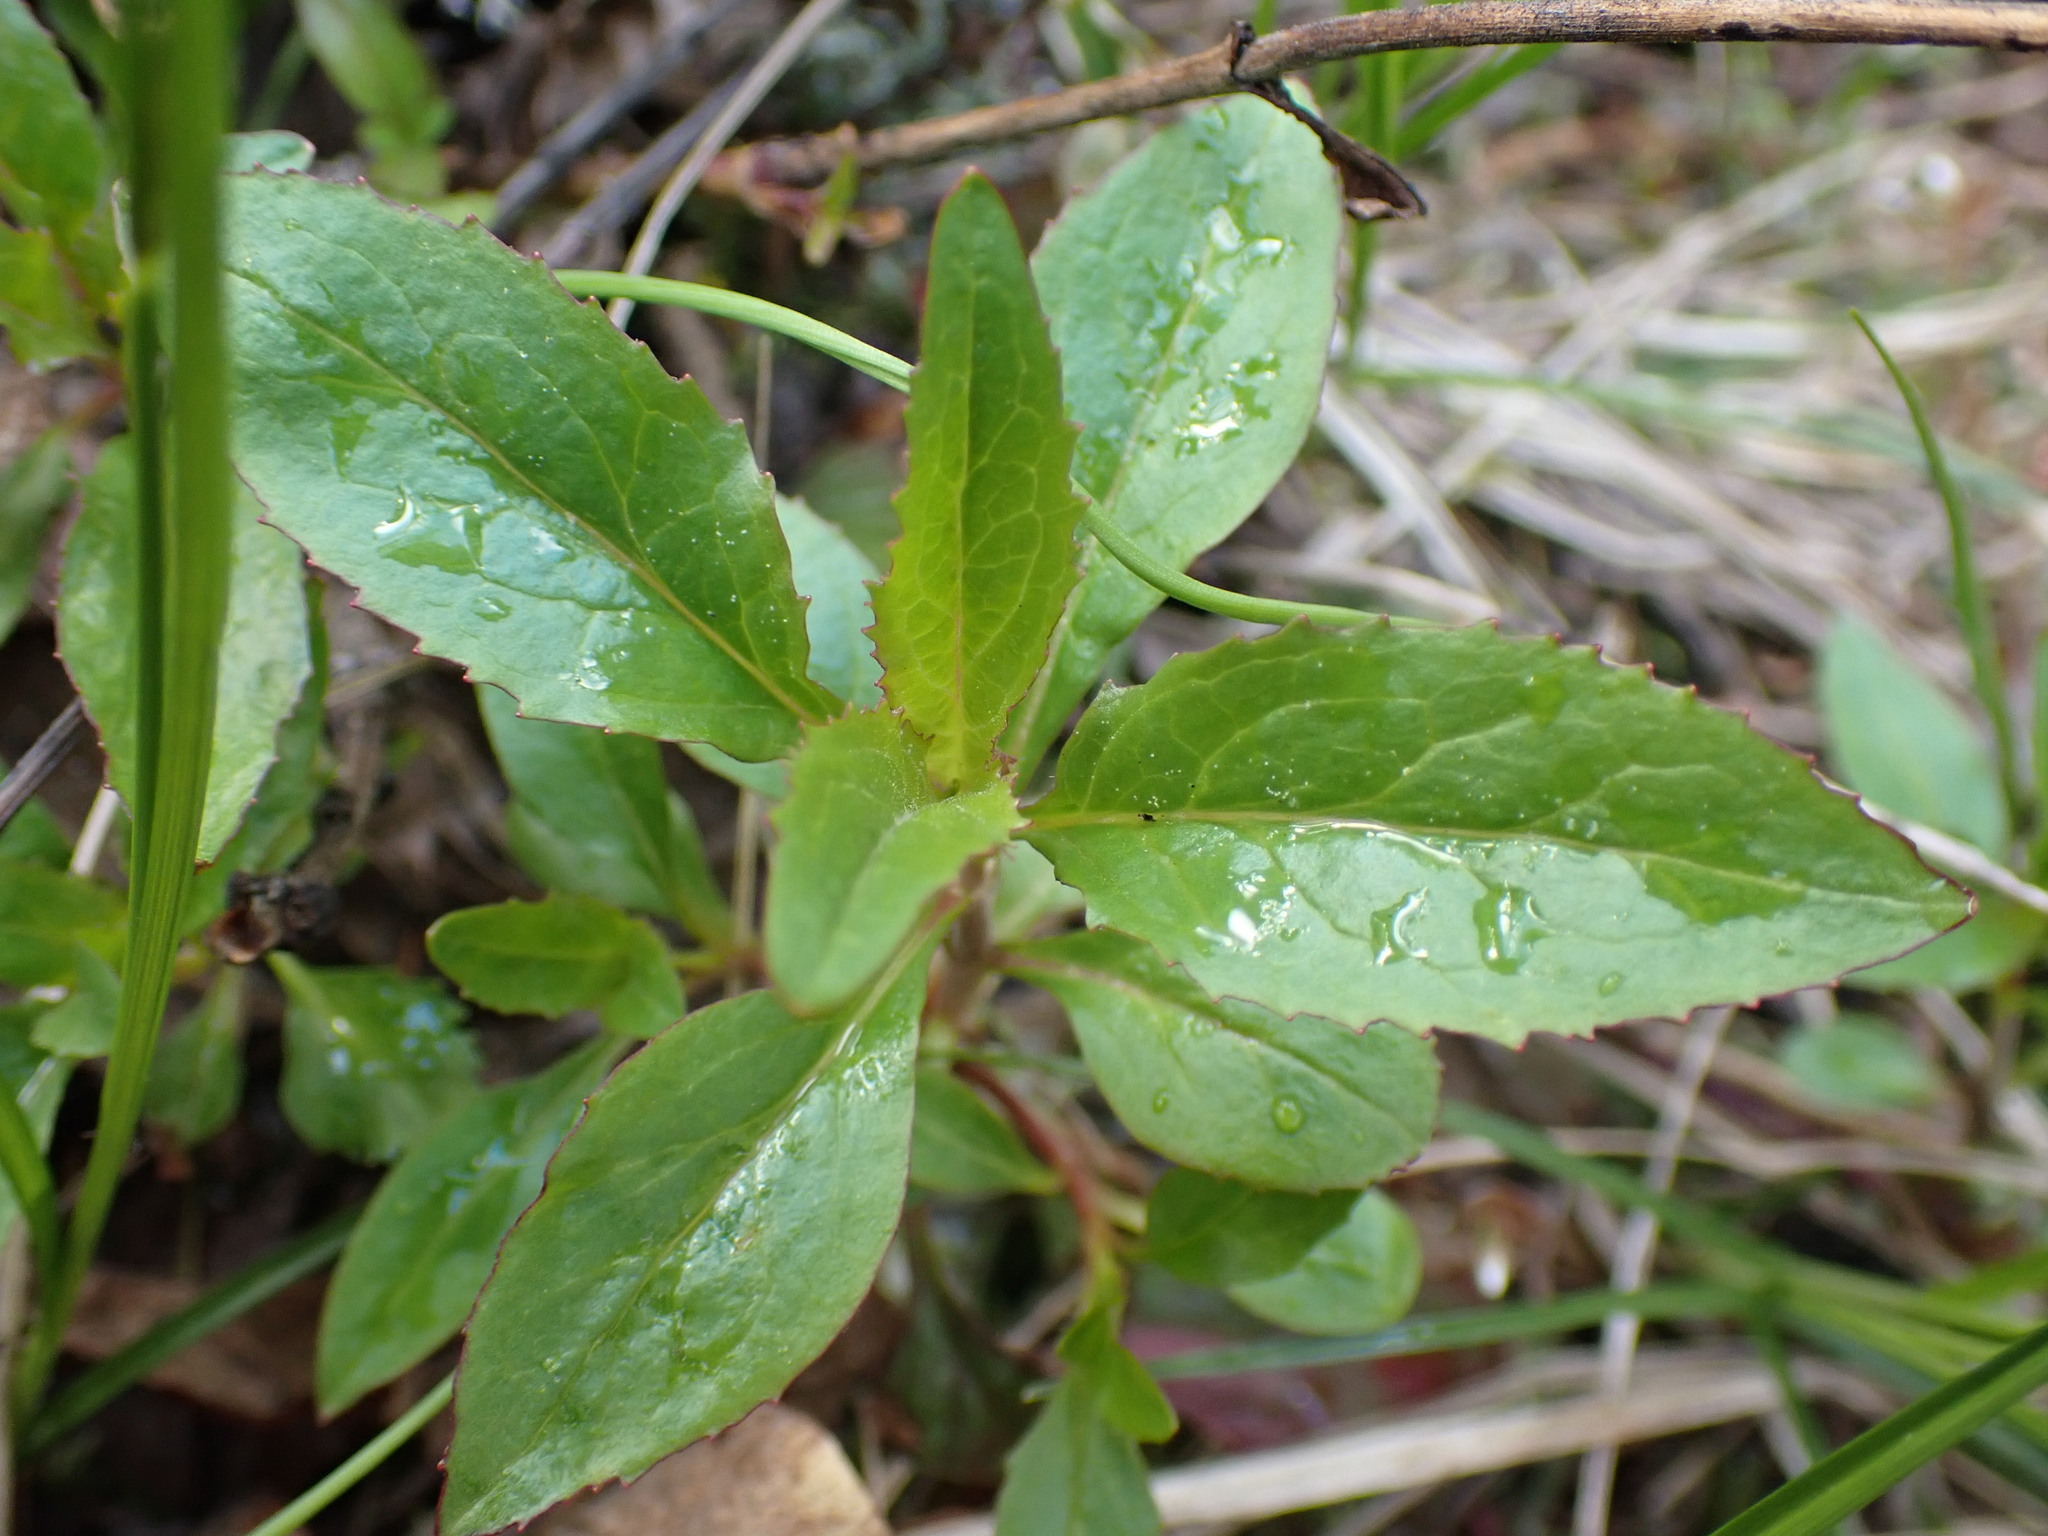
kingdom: Plantae
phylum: Tracheophyta
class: Magnoliopsida
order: Lamiales
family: Plantaginaceae
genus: Penstemon
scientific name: Penstemon serrulatus
